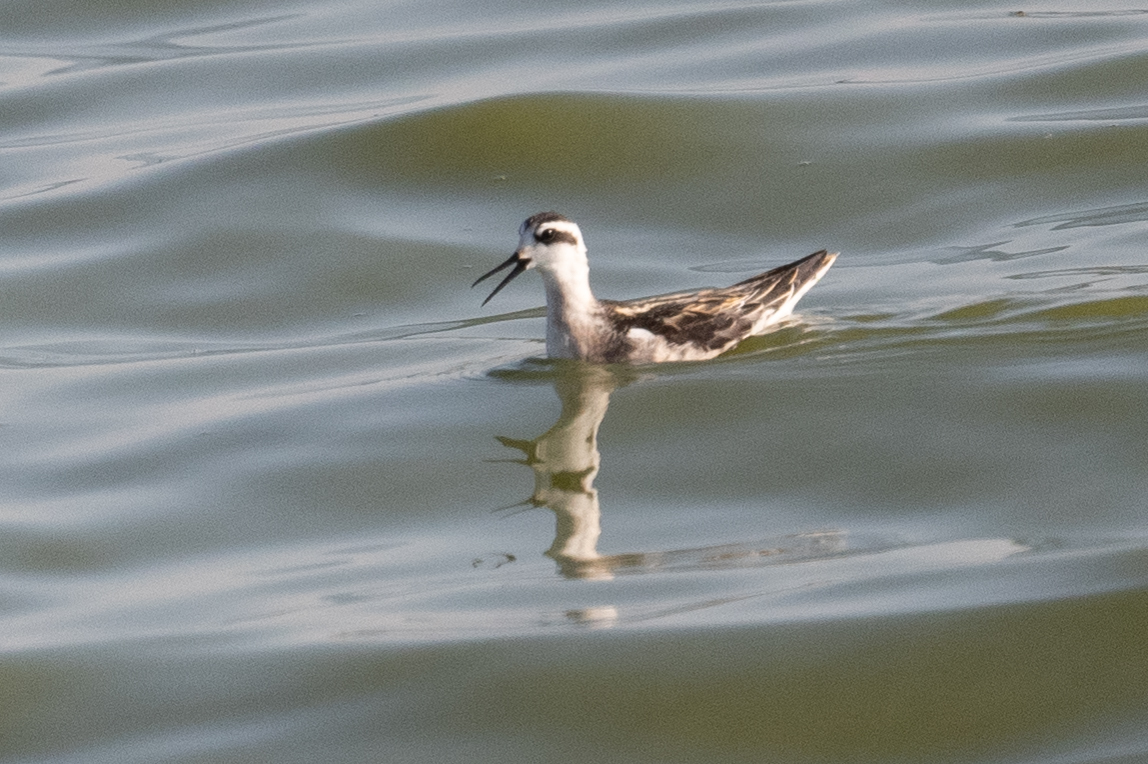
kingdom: Animalia
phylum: Chordata
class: Aves
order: Charadriiformes
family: Scolopacidae
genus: Phalaropus
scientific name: Phalaropus lobatus
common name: Red-necked phalarope
